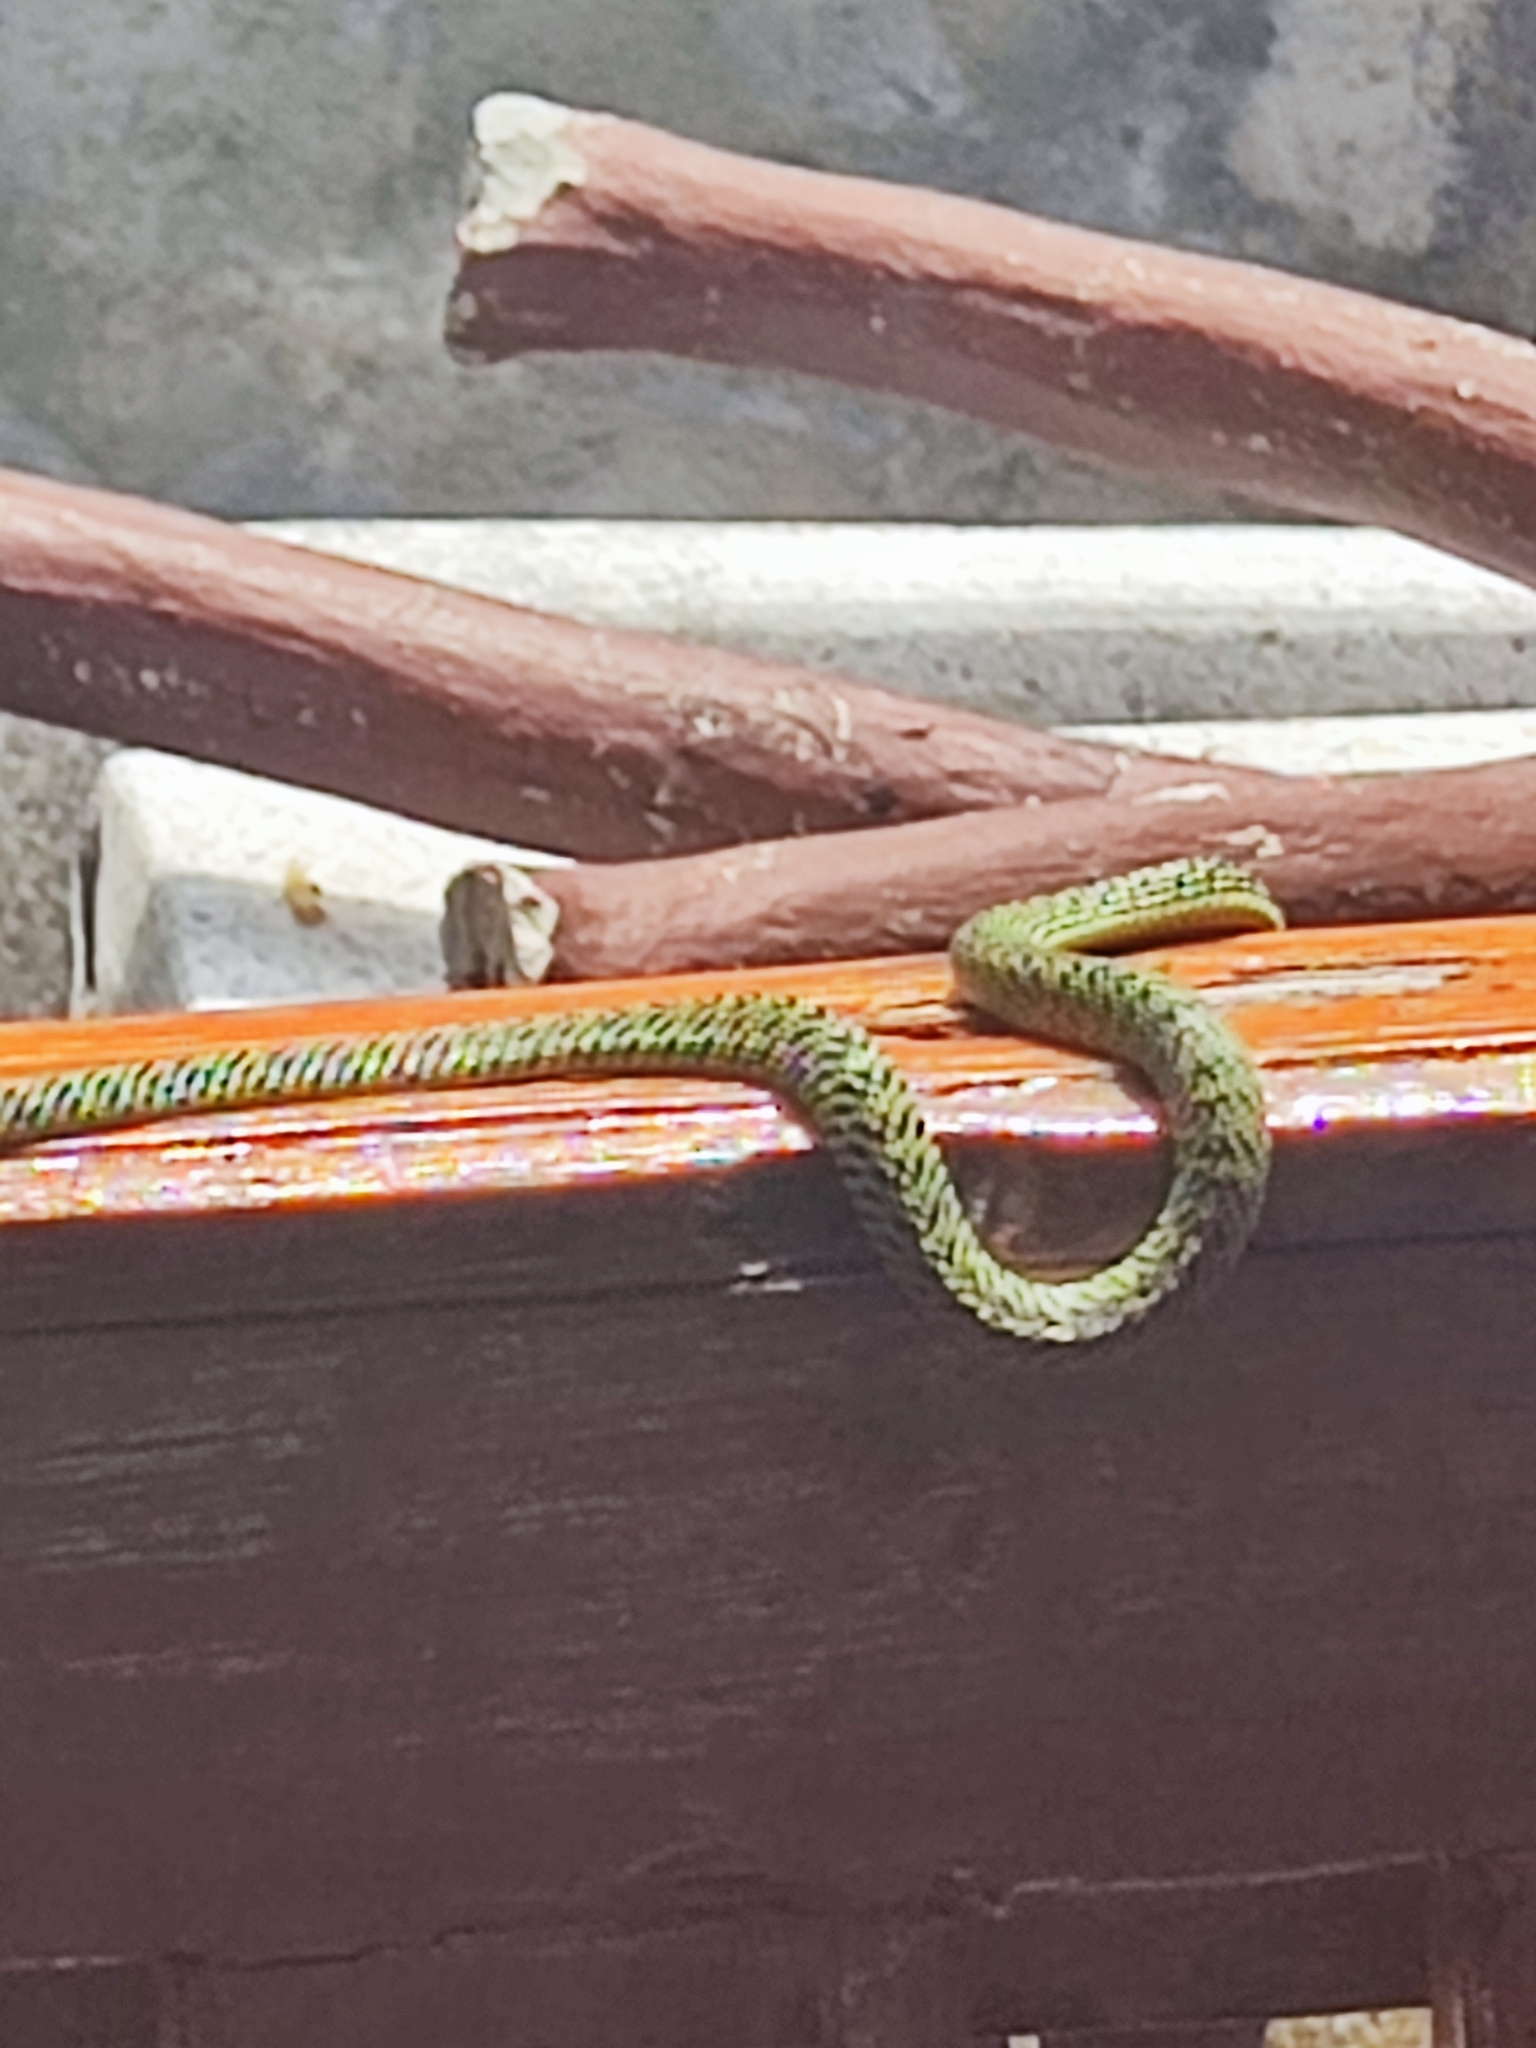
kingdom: Animalia
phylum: Chordata
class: Squamata
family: Colubridae
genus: Chrysopelea
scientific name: Chrysopelea ornata
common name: Golden flying snake
